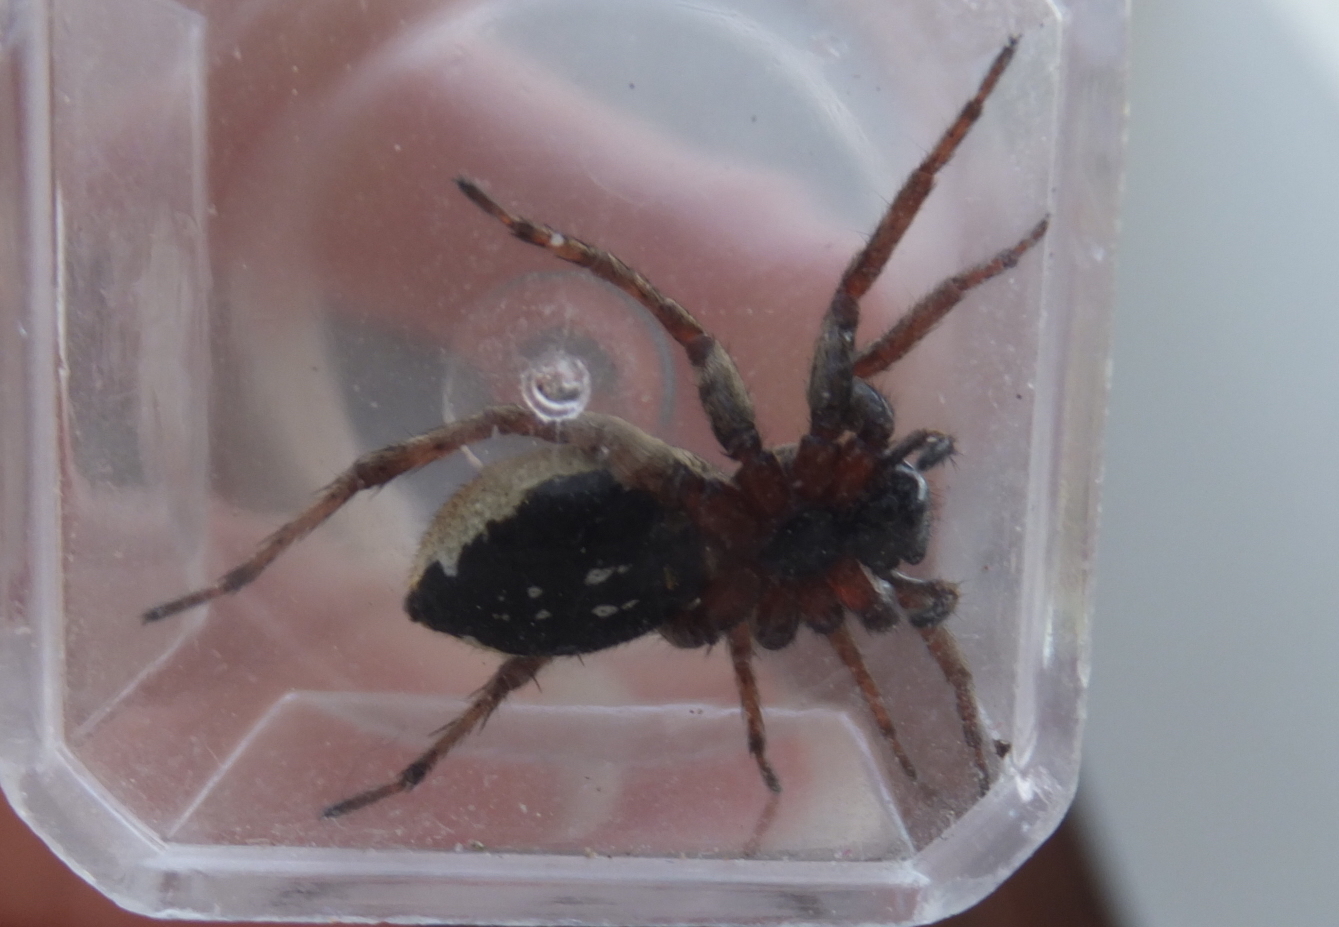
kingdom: Animalia
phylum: Arthropoda
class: Arachnida
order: Araneae
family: Lycosidae
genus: Alopecosa
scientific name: Alopecosa albofasciata
